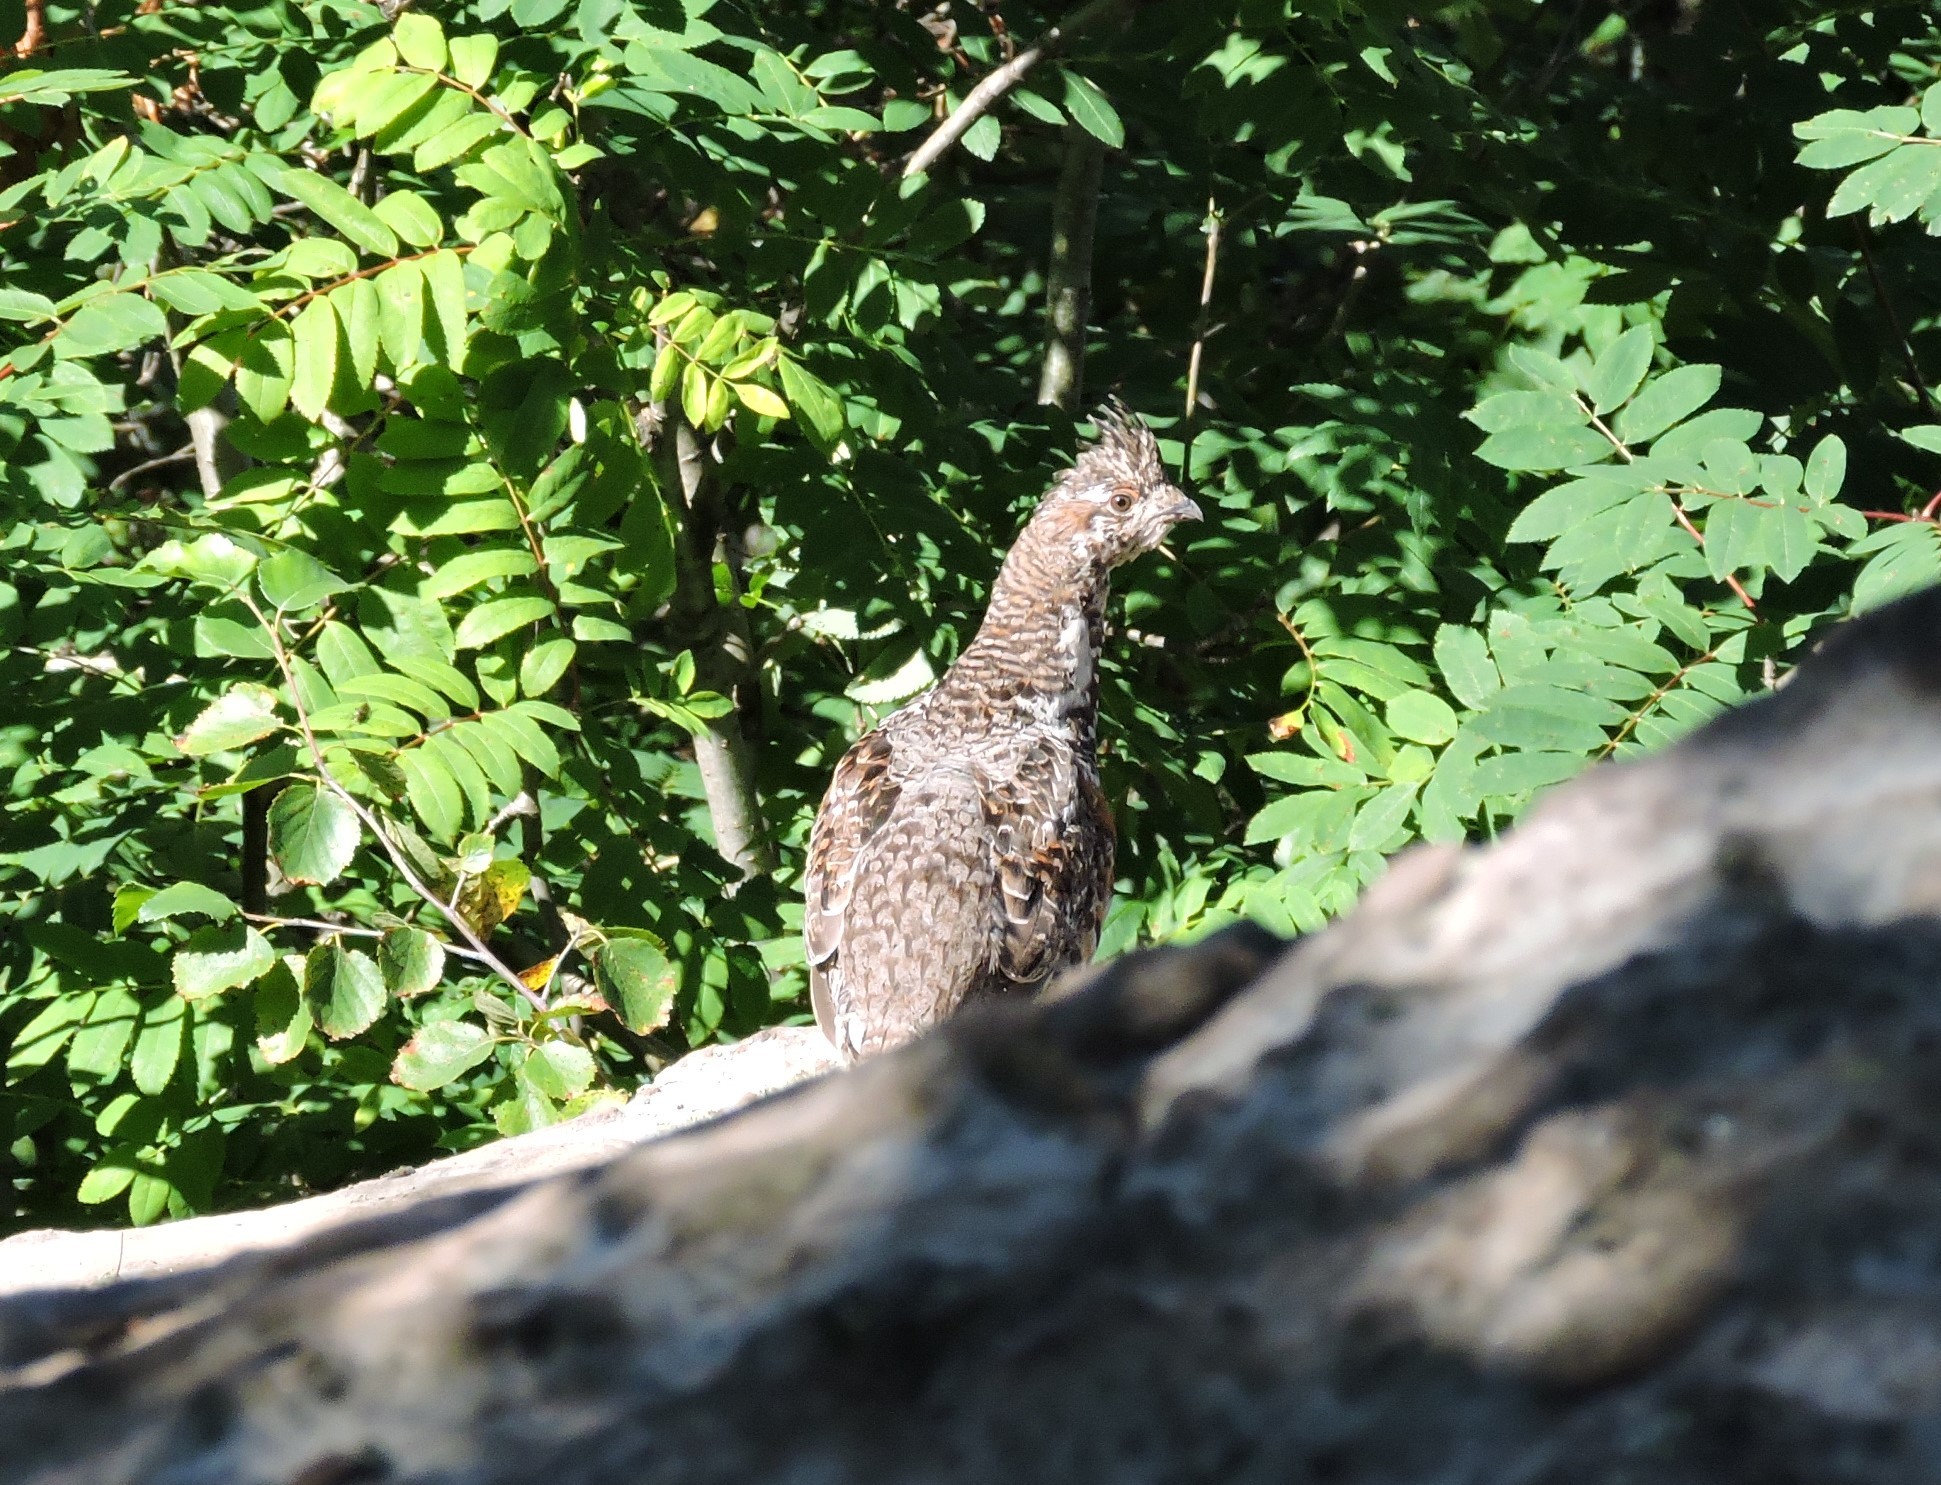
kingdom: Animalia
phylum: Chordata
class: Aves
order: Galliformes
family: Phasianidae
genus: Tetrastes
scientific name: Tetrastes bonasia
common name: Hazel grouse
